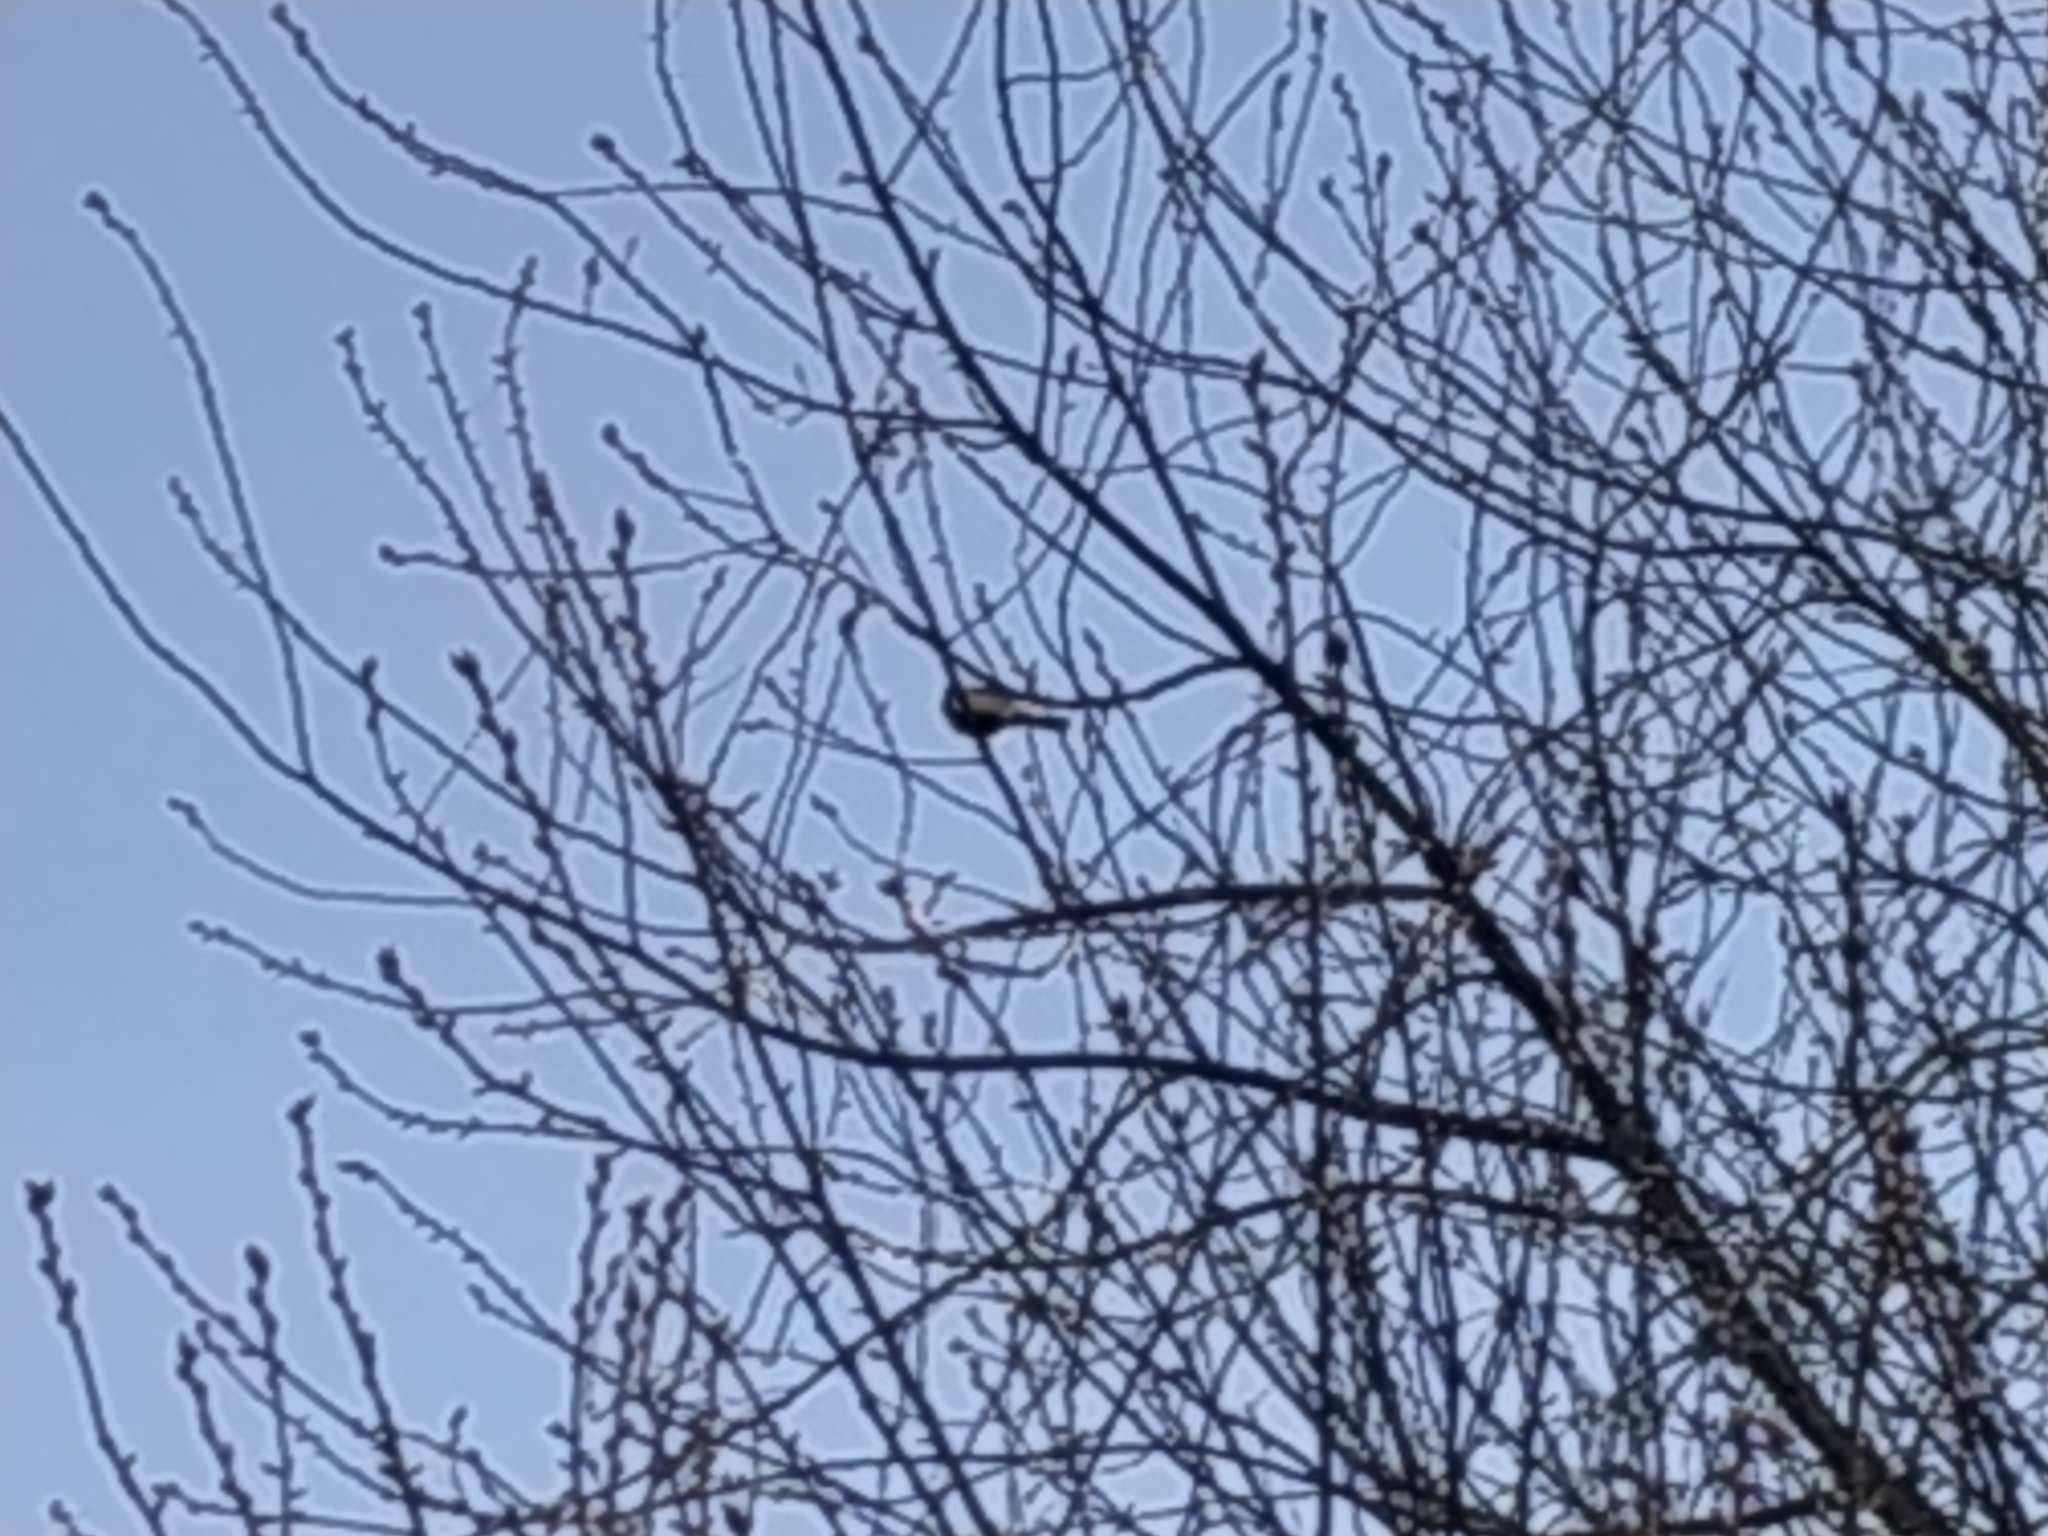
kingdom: Animalia
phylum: Chordata
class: Aves
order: Passeriformes
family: Paridae
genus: Parus
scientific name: Parus major
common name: Great tit
